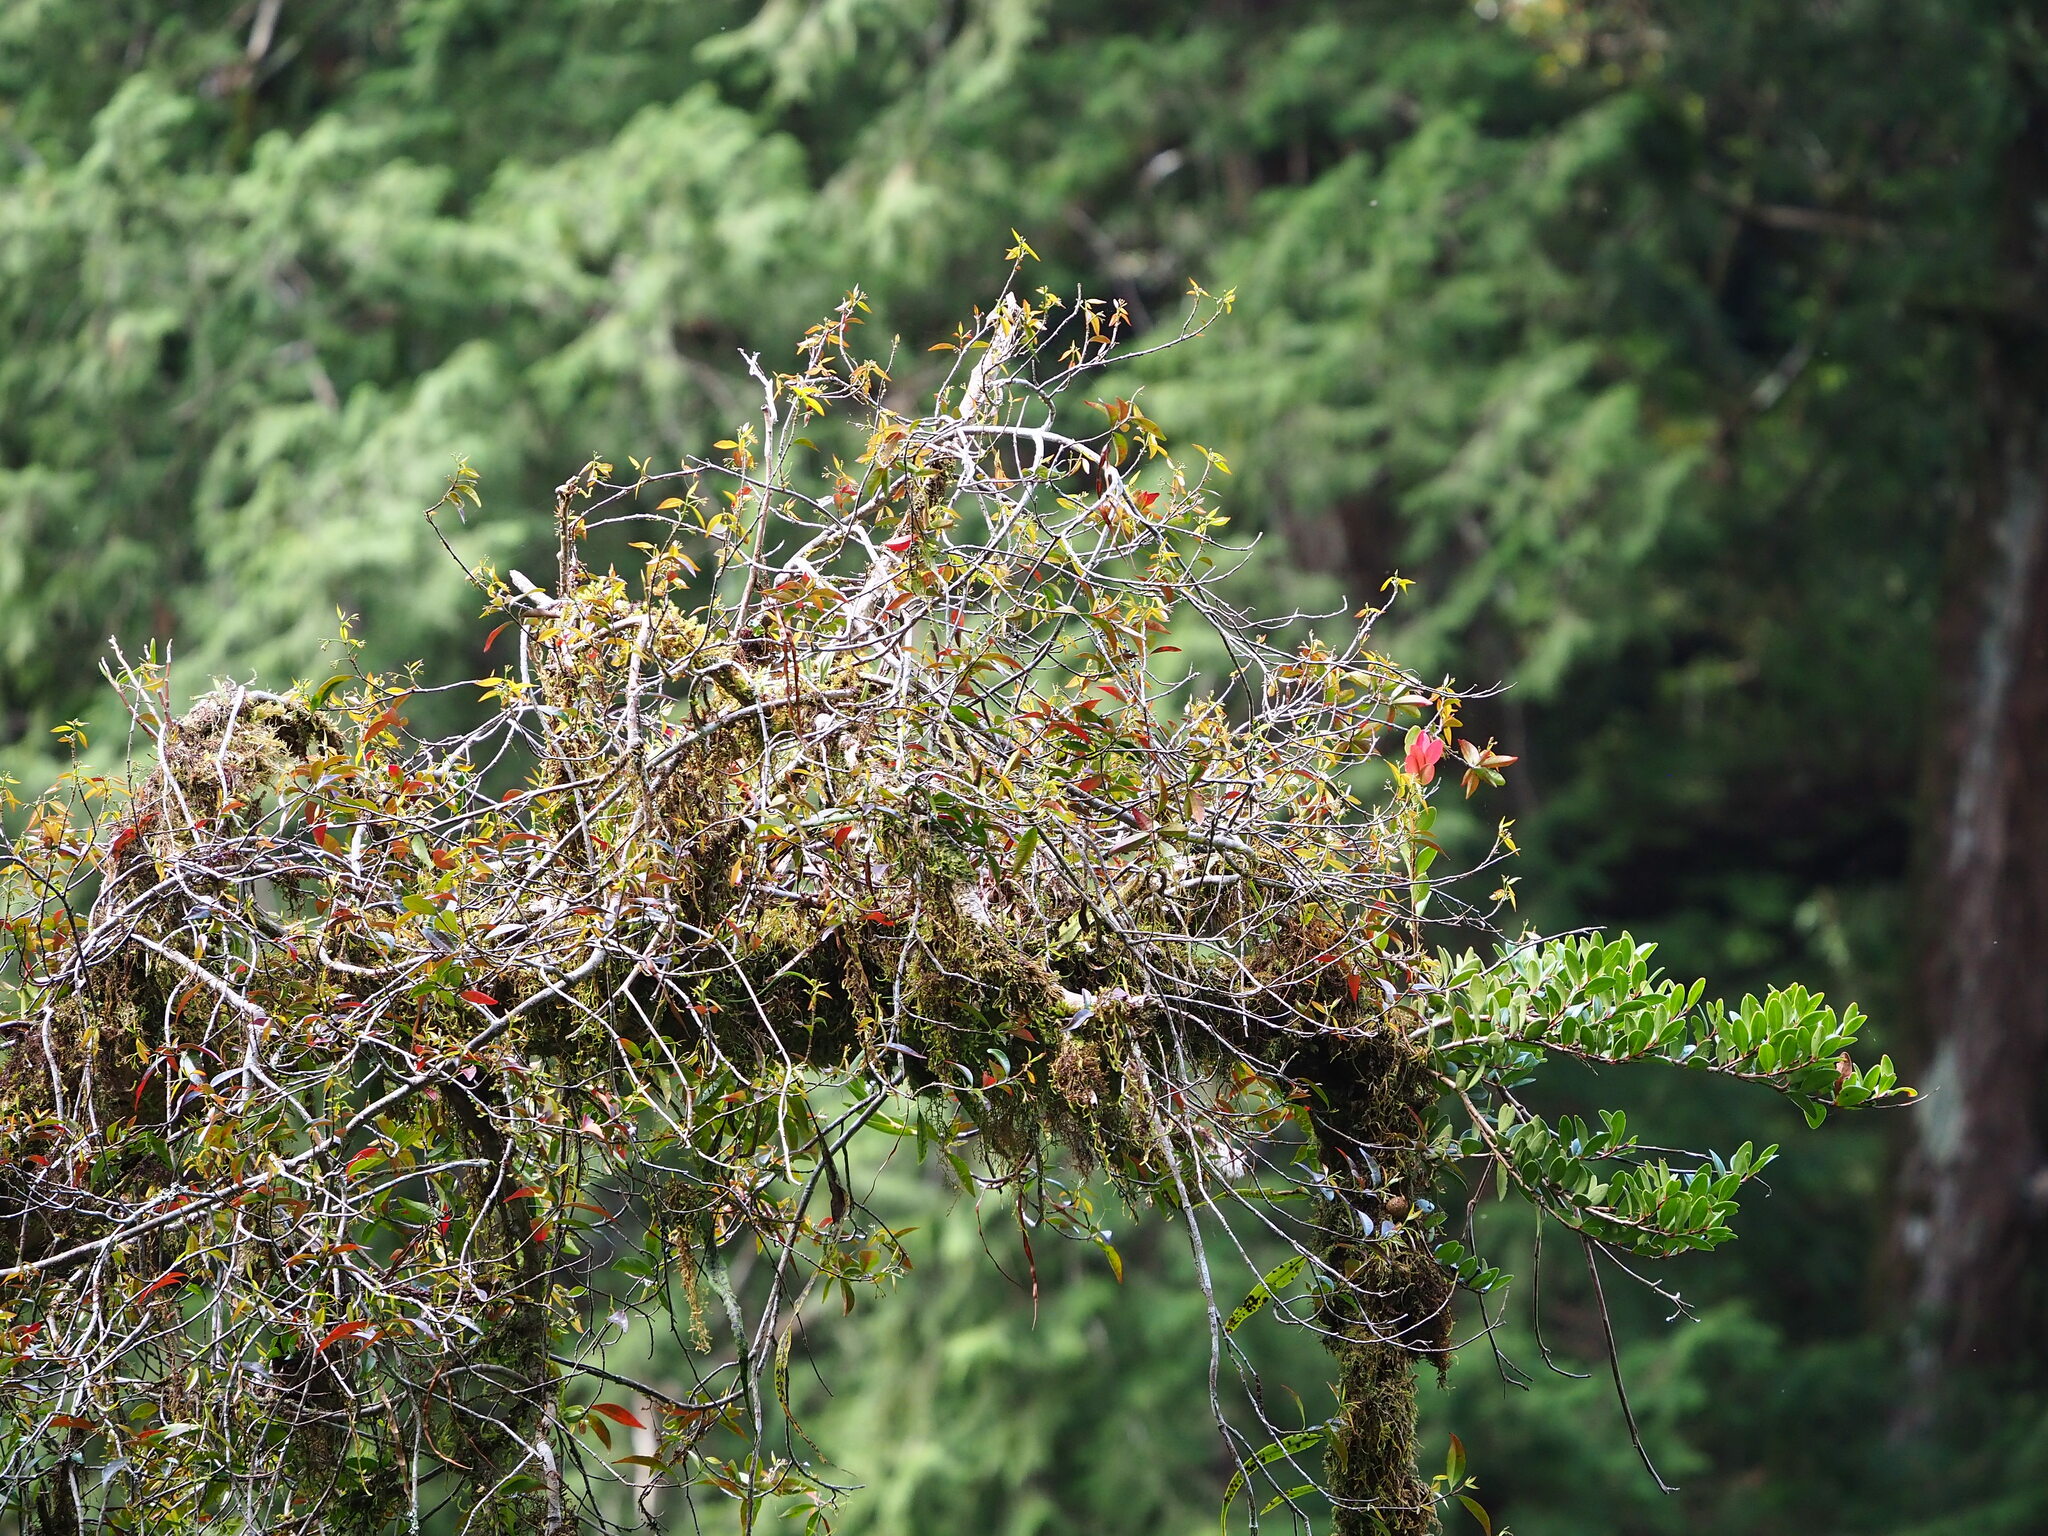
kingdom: Plantae
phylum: Tracheophyta
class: Magnoliopsida
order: Ericales
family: Ericaceae
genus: Vaccinium
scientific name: Vaccinium emarginatum
